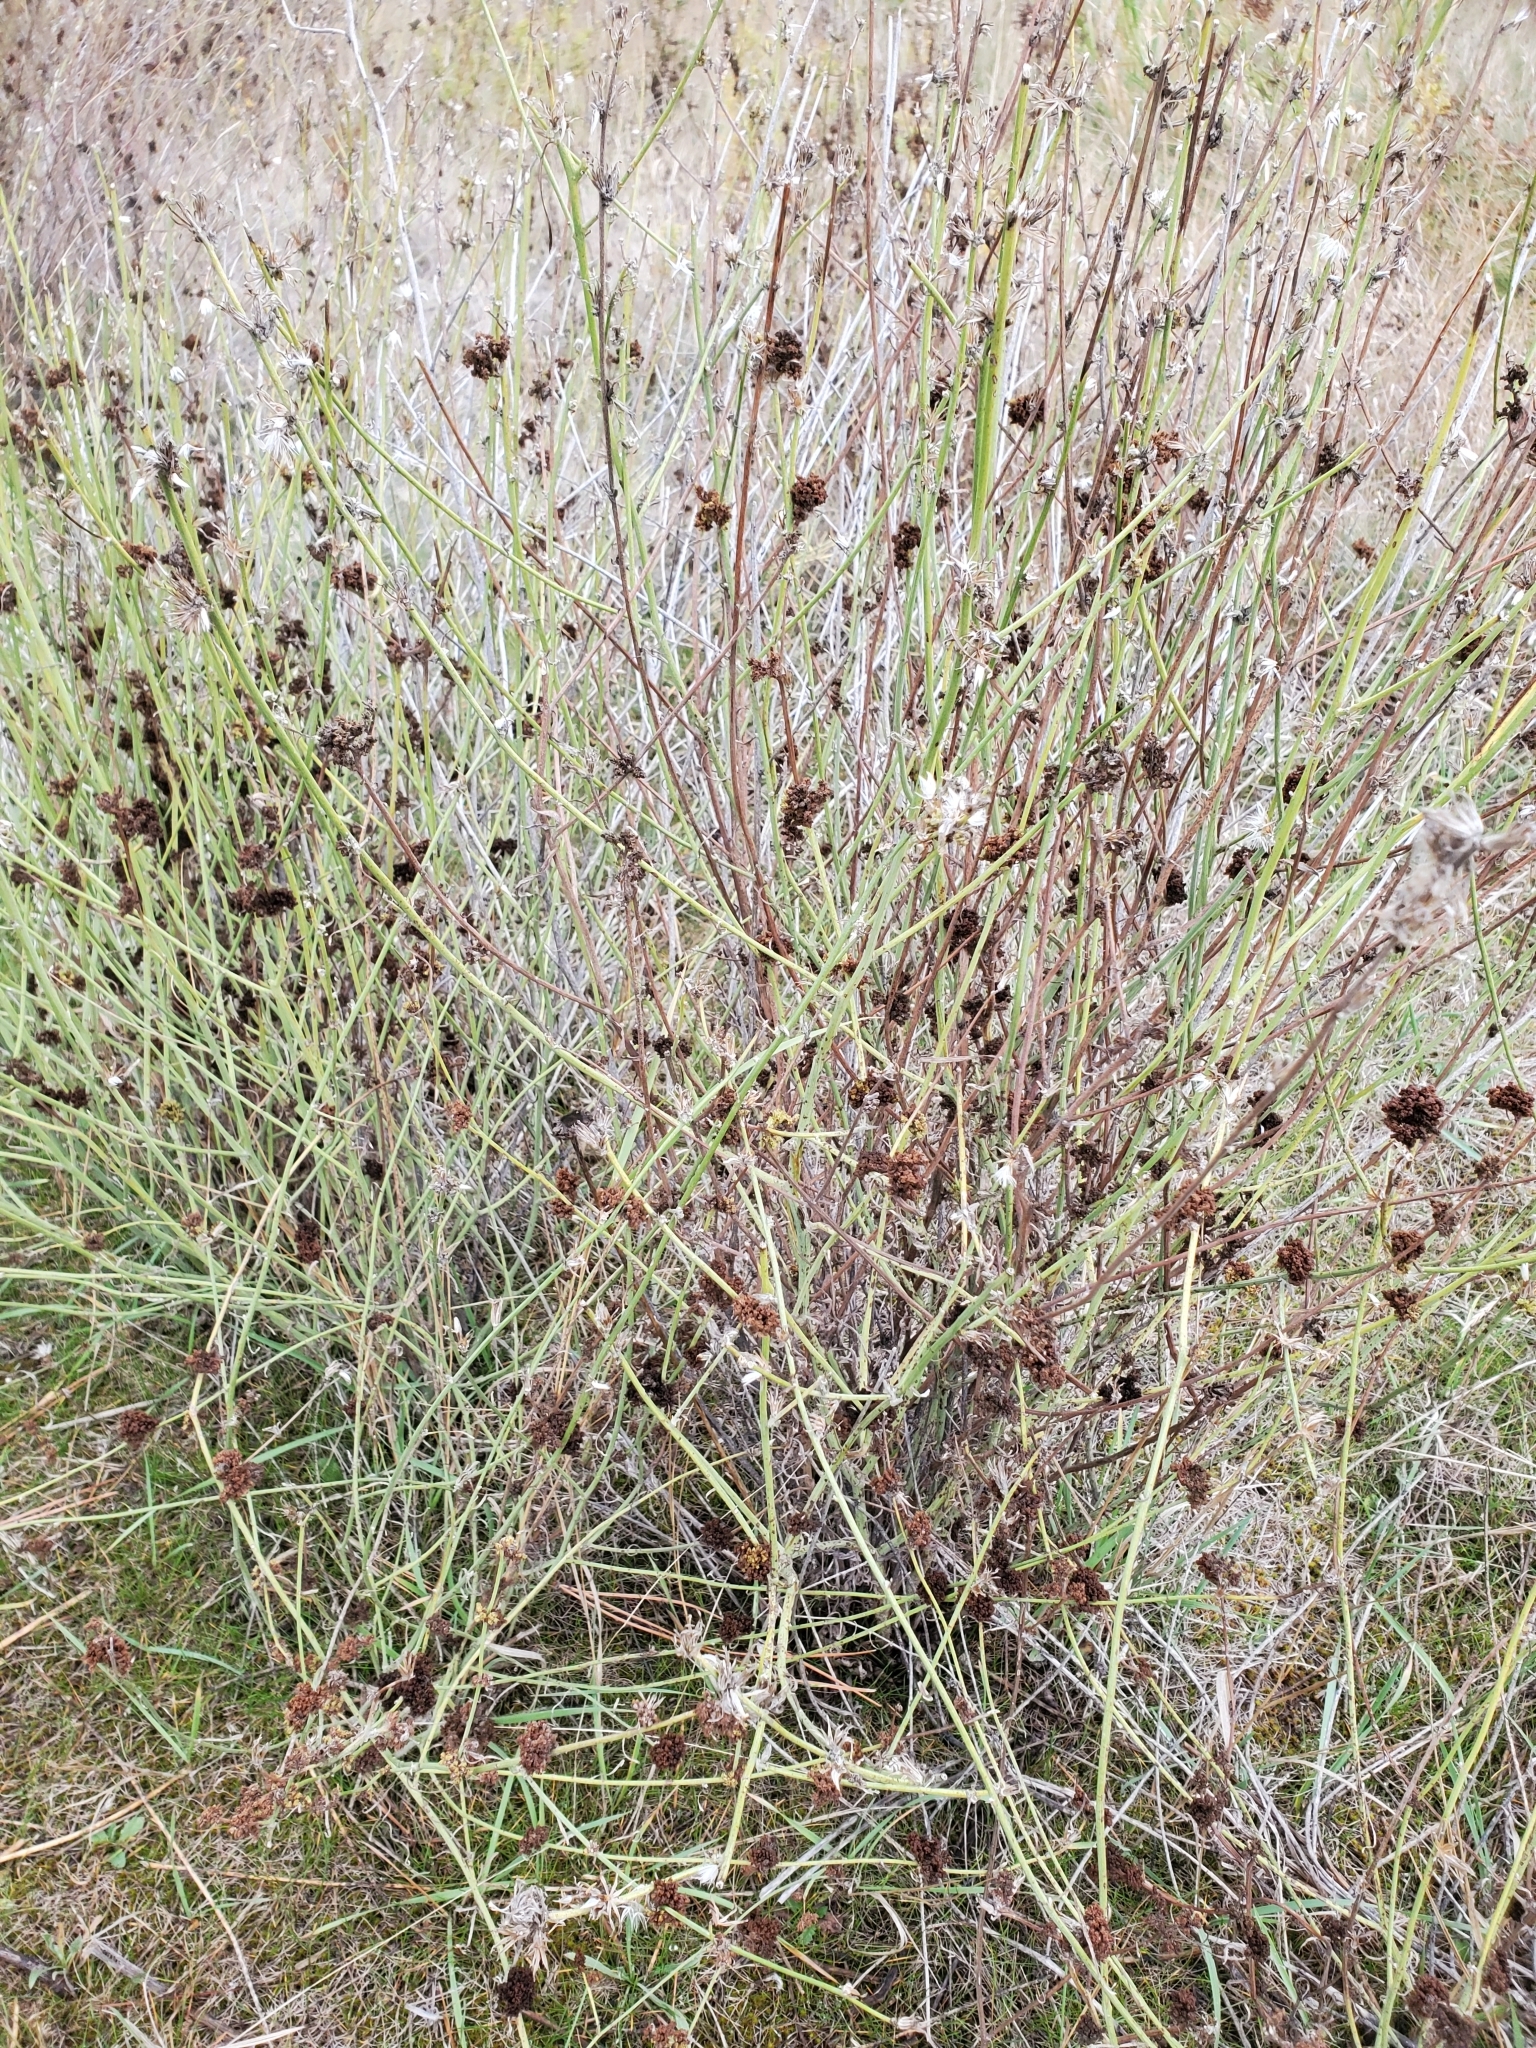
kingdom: Animalia
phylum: Arthropoda
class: Arachnida
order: Trombidiformes
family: Eriophyidae
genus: Aceria
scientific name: Aceria chondrillae
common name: Rush skeletonweed gall mite
